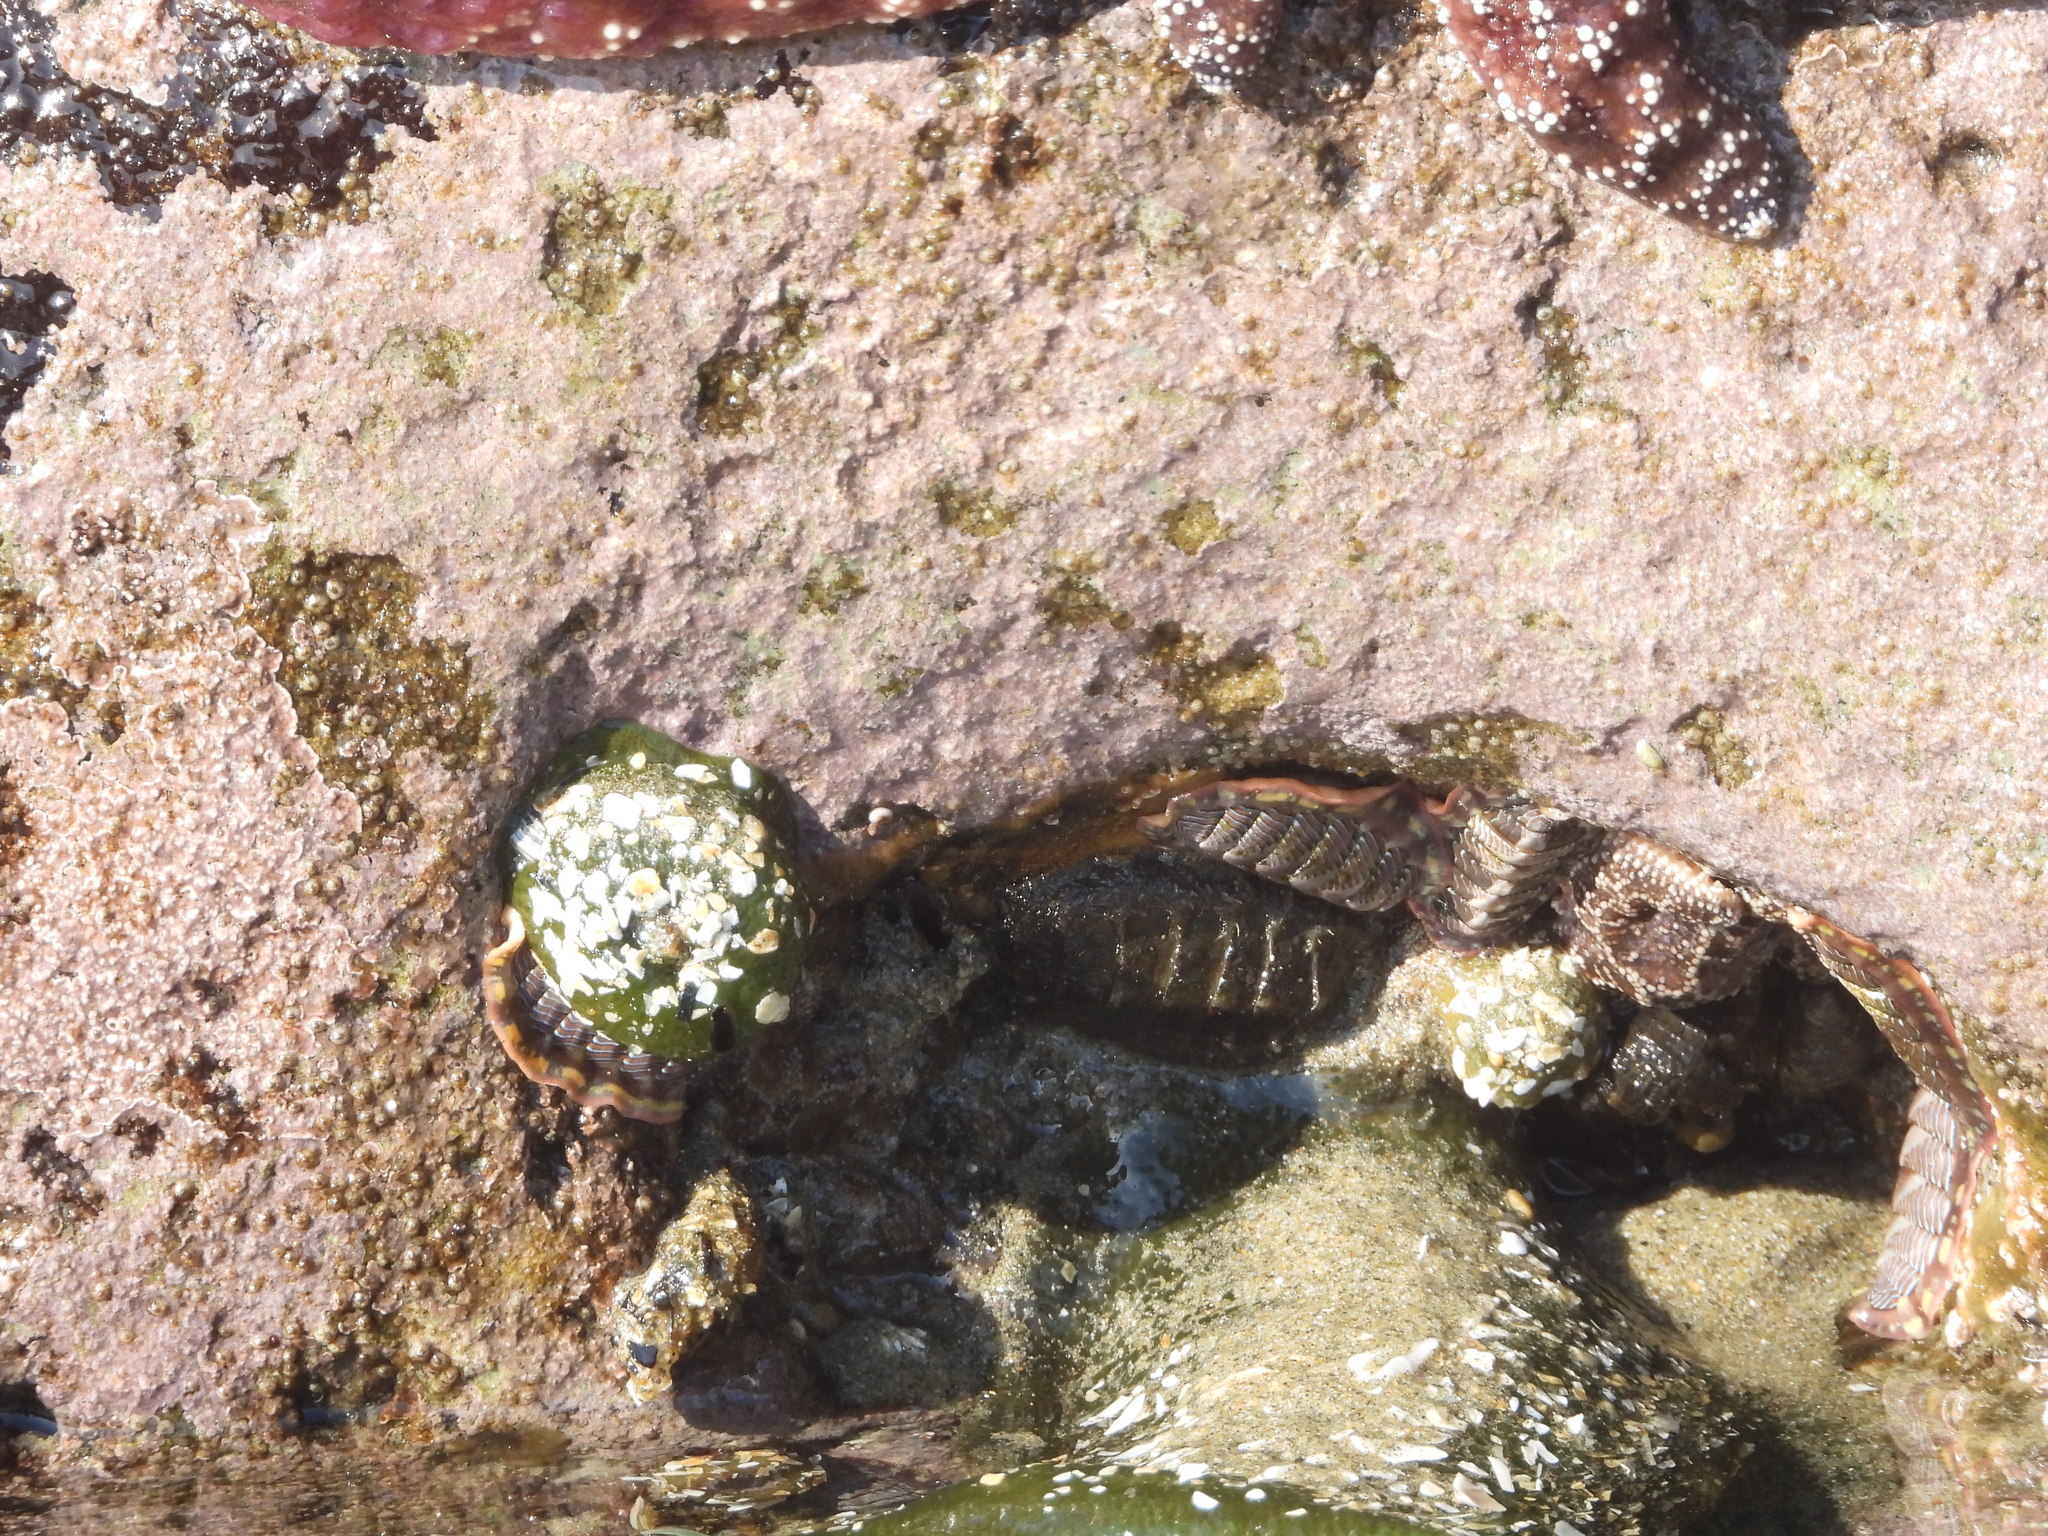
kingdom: Animalia
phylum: Mollusca
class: Polyplacophora
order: Chitonida
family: Tonicellidae
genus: Tonicella
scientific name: Tonicella lineata
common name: Lined chiton
